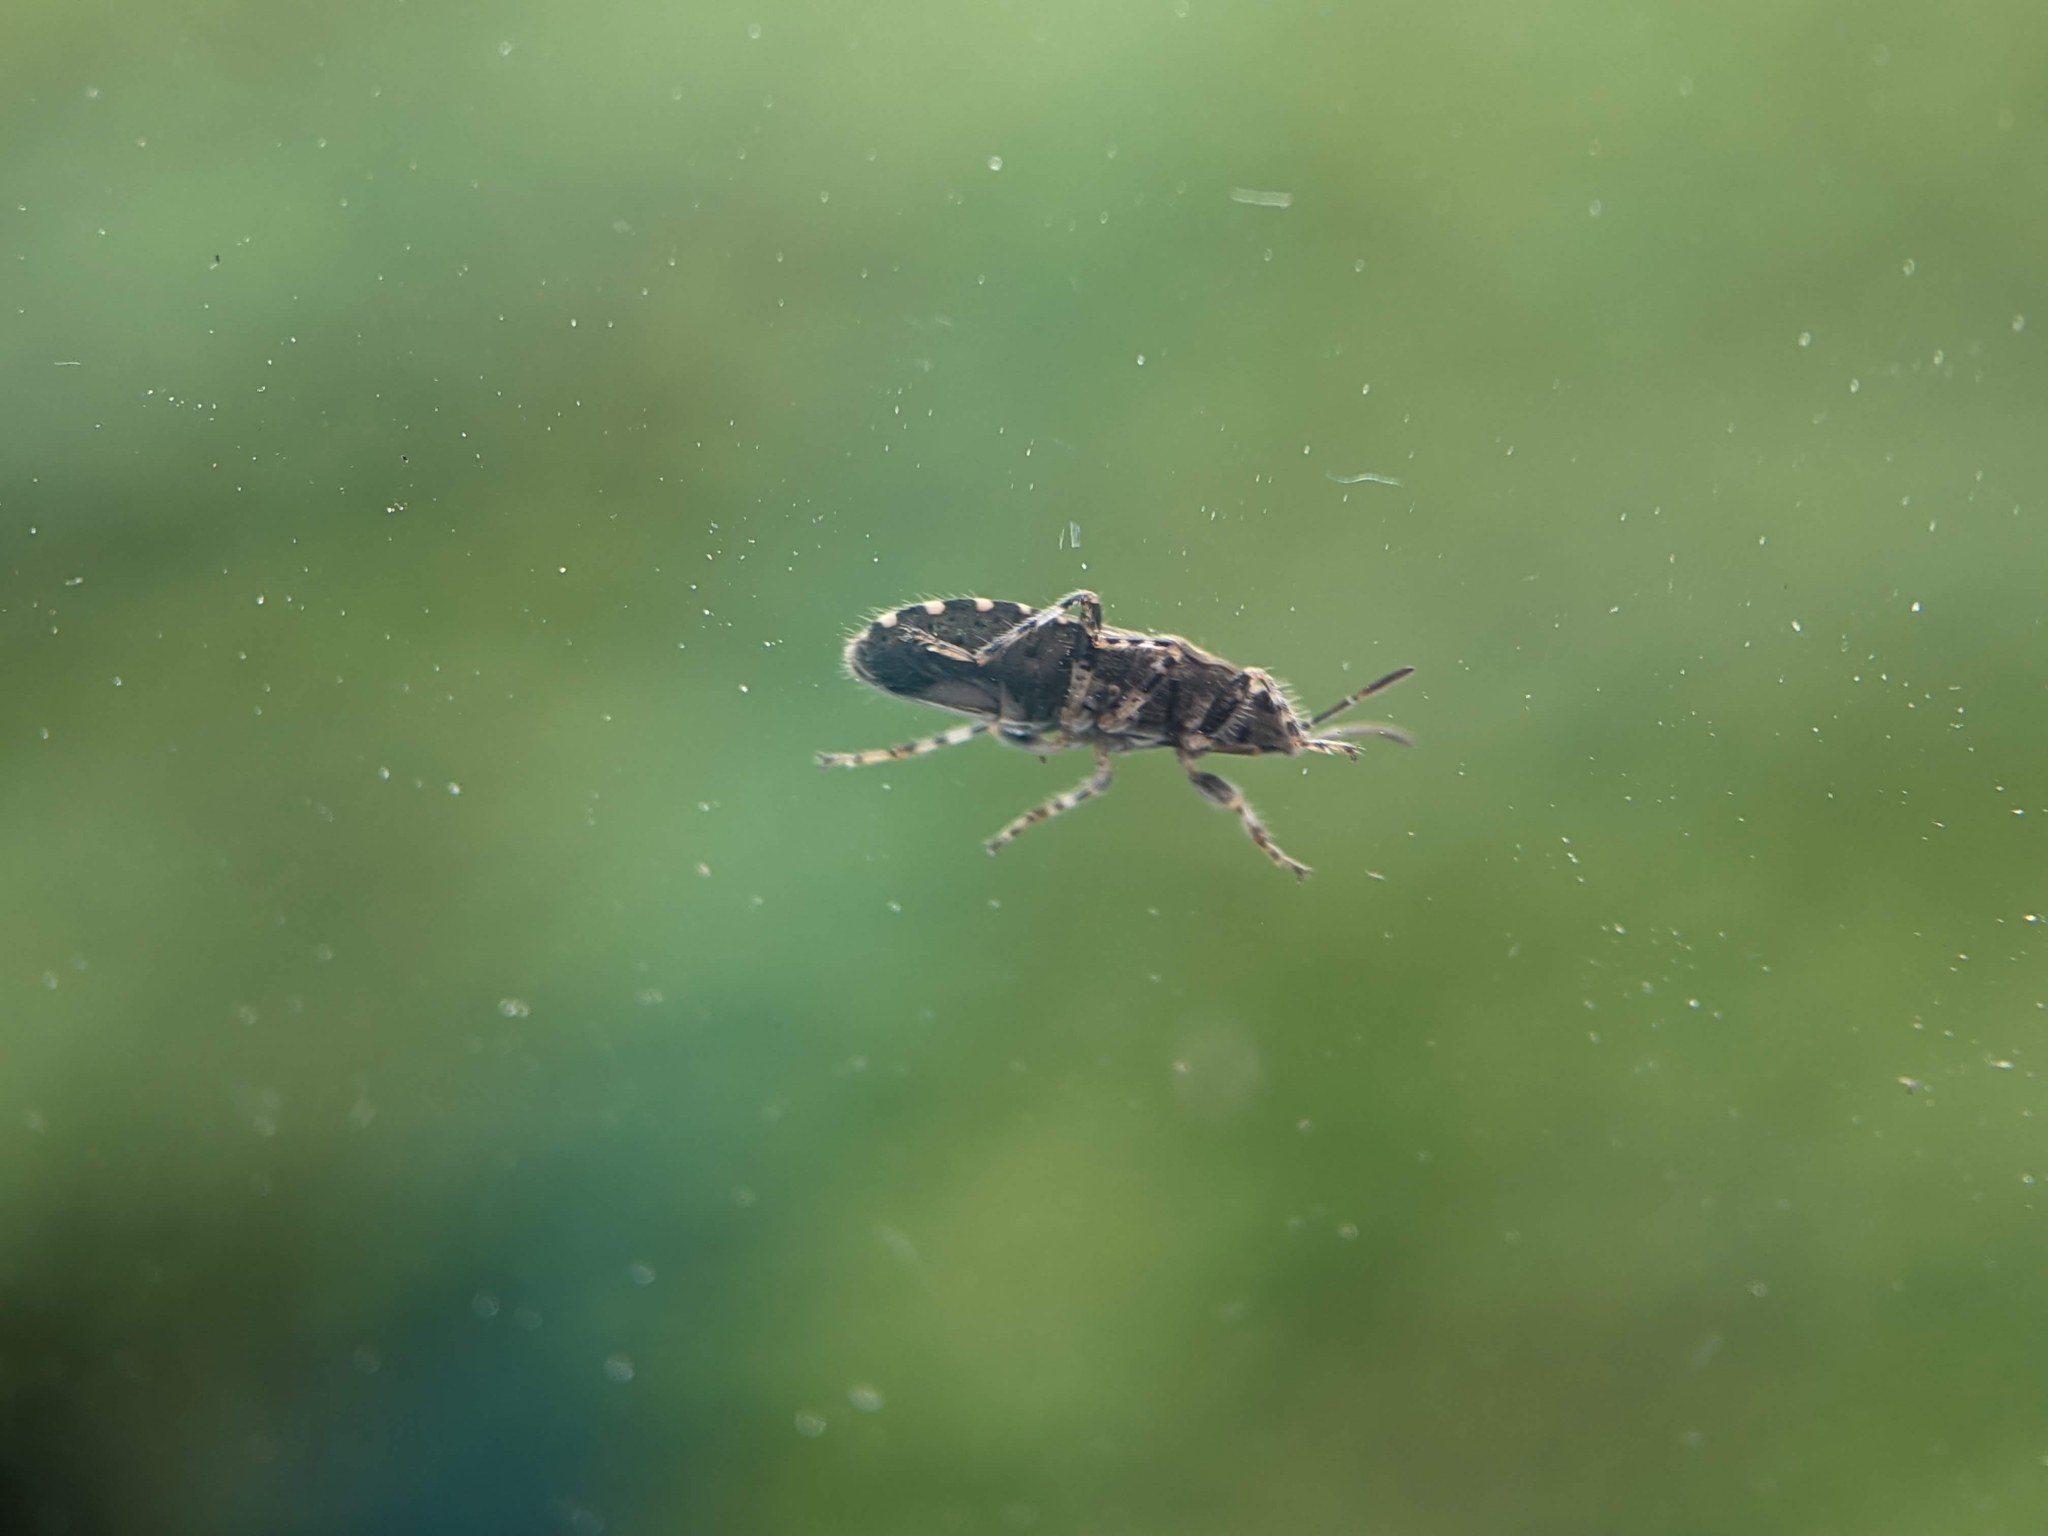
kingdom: Animalia
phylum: Arthropoda
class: Insecta
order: Hemiptera
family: Heterogastridae
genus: Heterogaster
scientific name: Heterogaster urticae
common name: Seed bug
